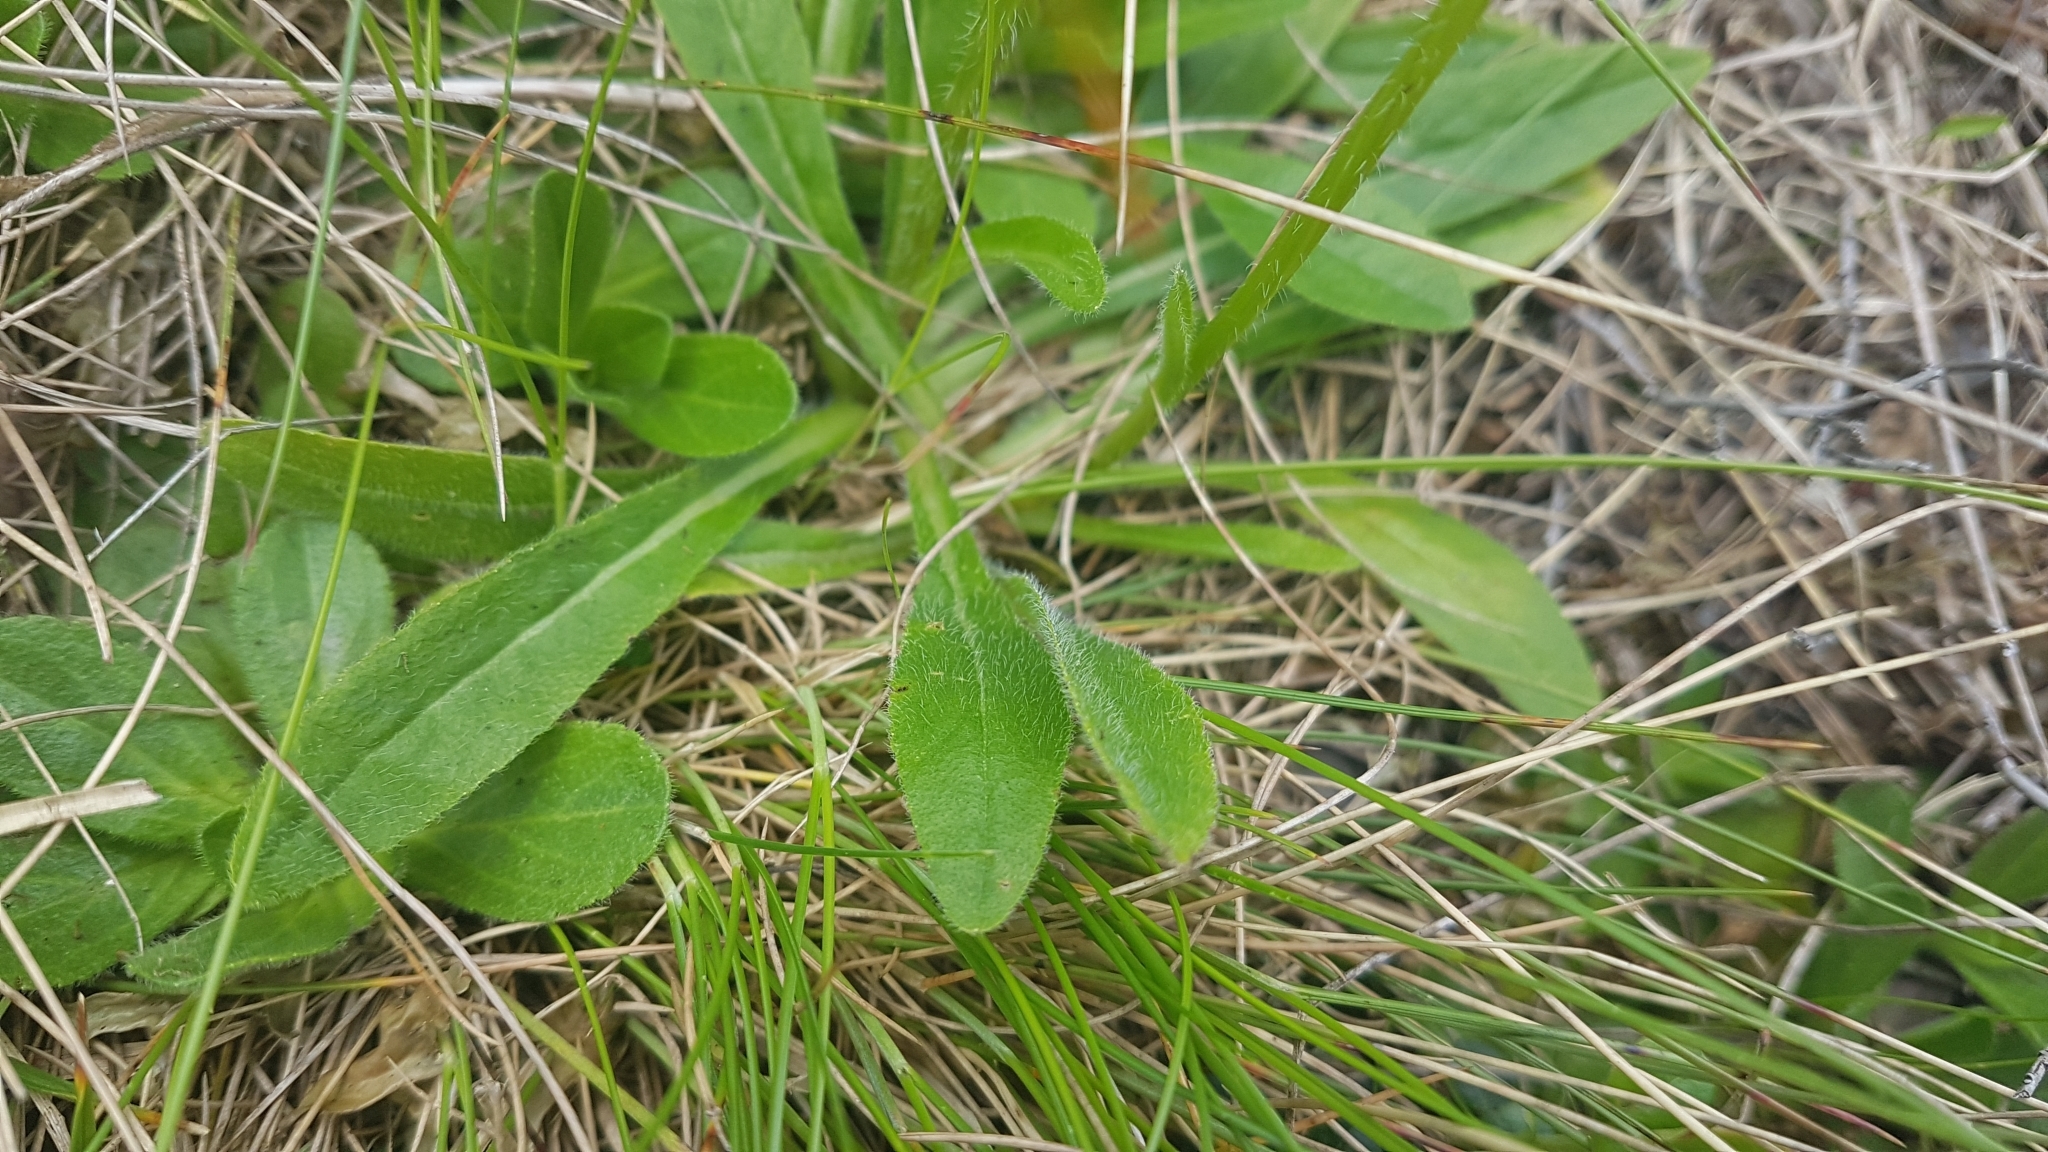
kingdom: Plantae
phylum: Tracheophyta
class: Magnoliopsida
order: Asterales
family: Campanulaceae
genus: Campanula
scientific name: Campanula barbata
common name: Bearded bellflower
